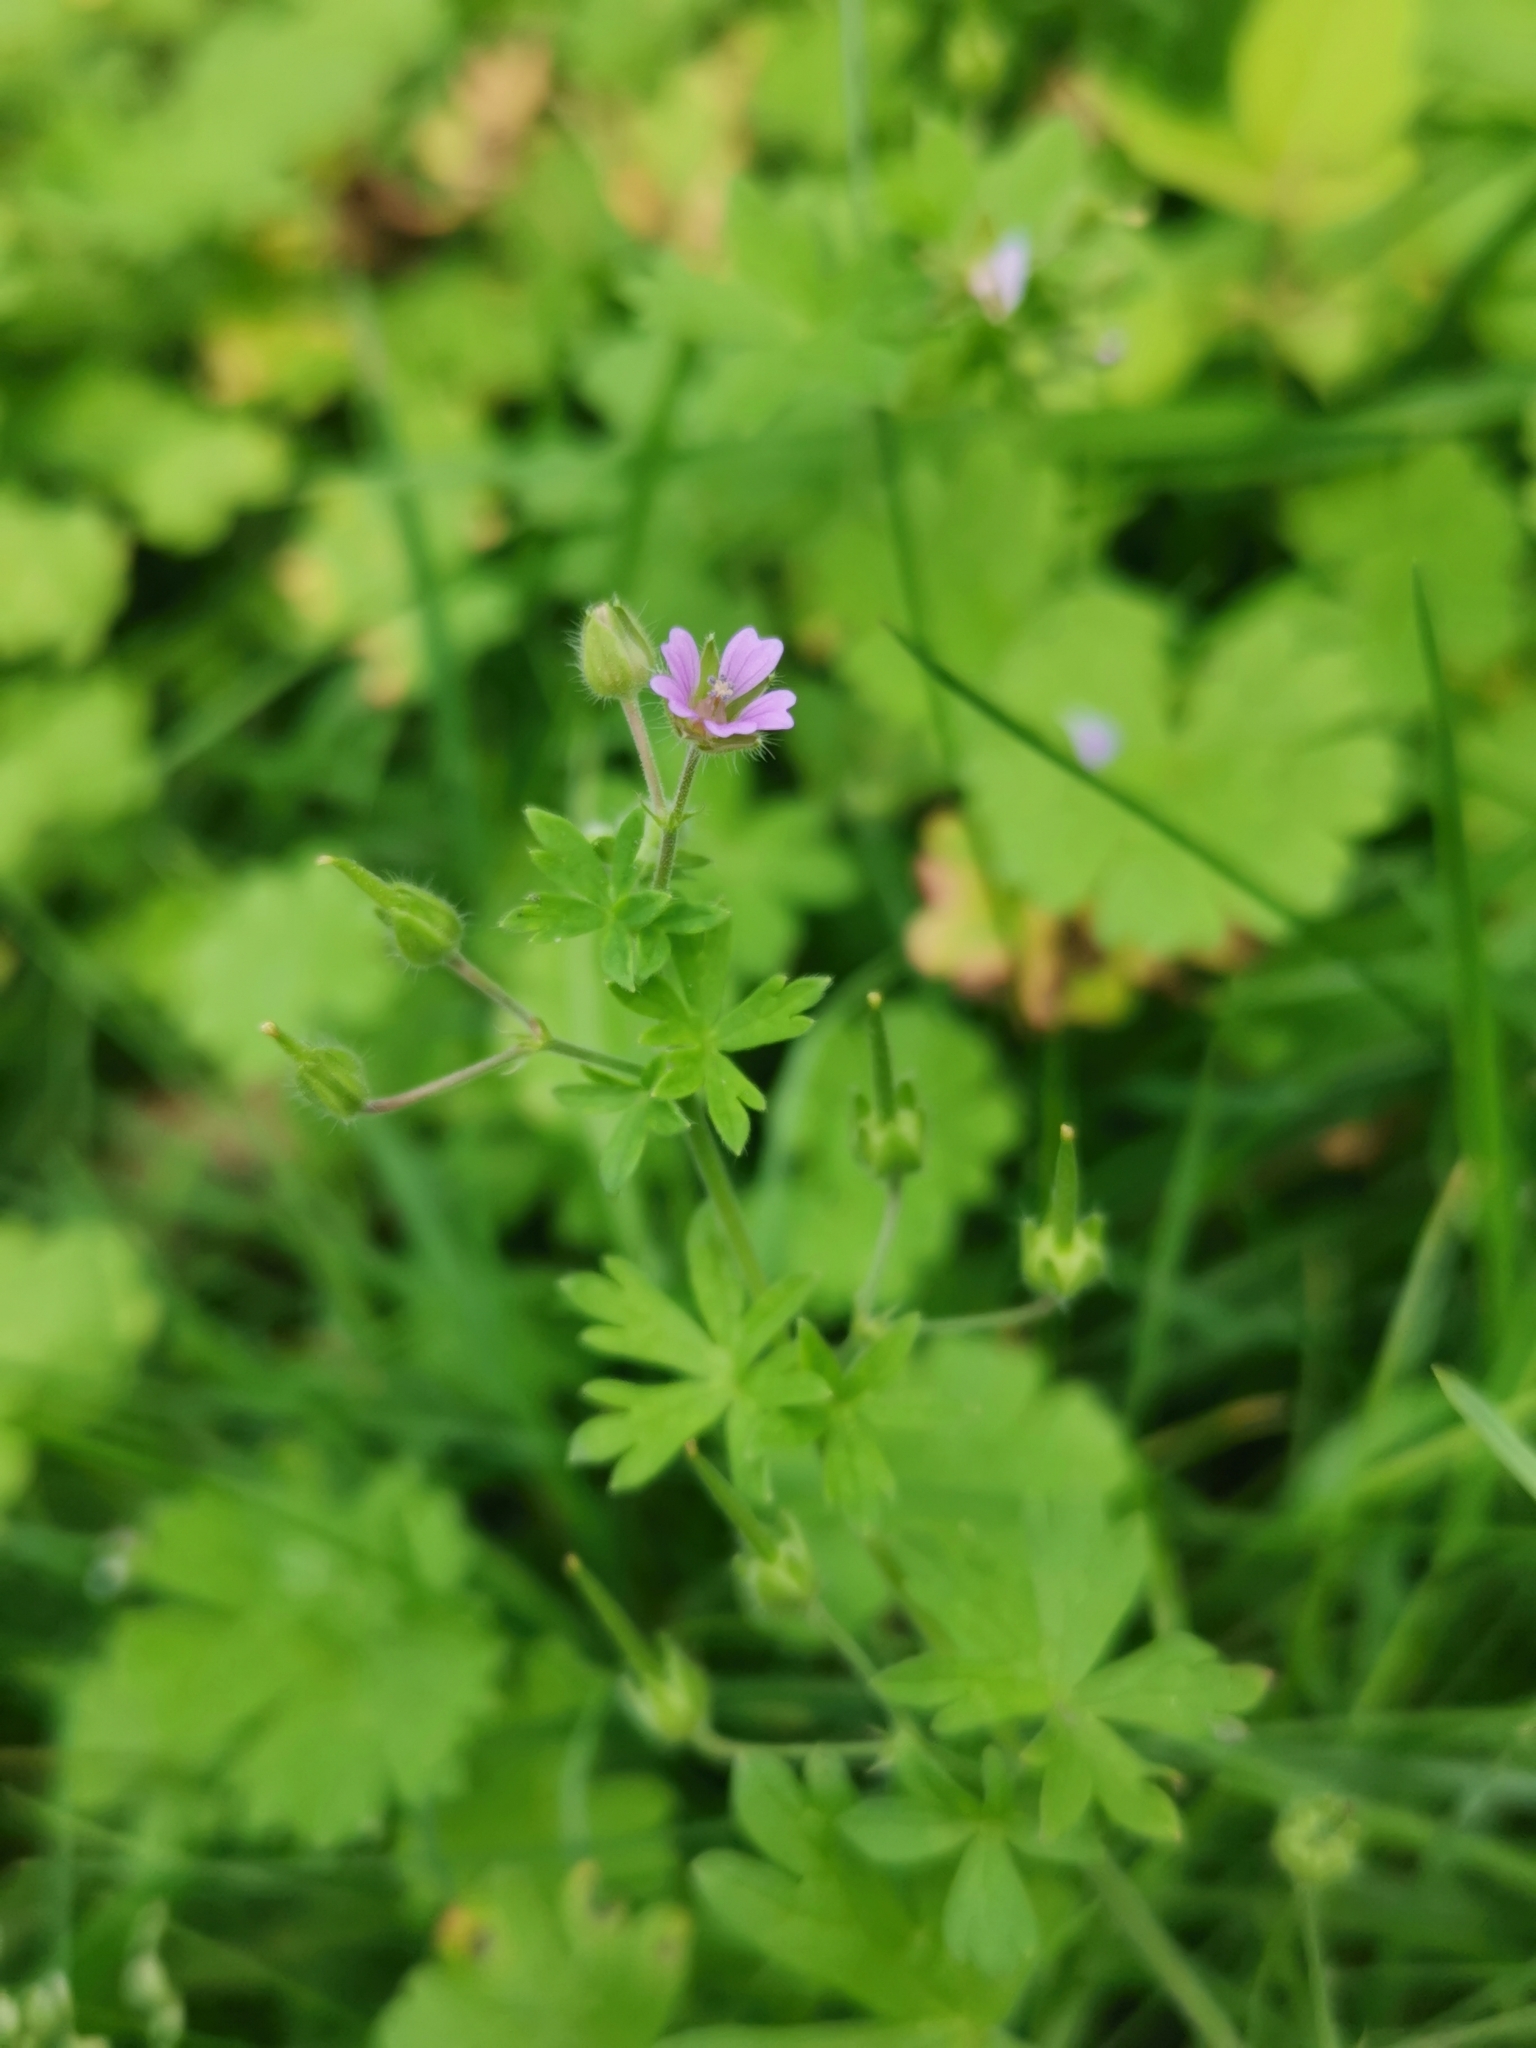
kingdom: Plantae
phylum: Tracheophyta
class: Magnoliopsida
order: Geraniales
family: Geraniaceae
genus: Geranium
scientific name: Geranium pusillum
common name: Small geranium
